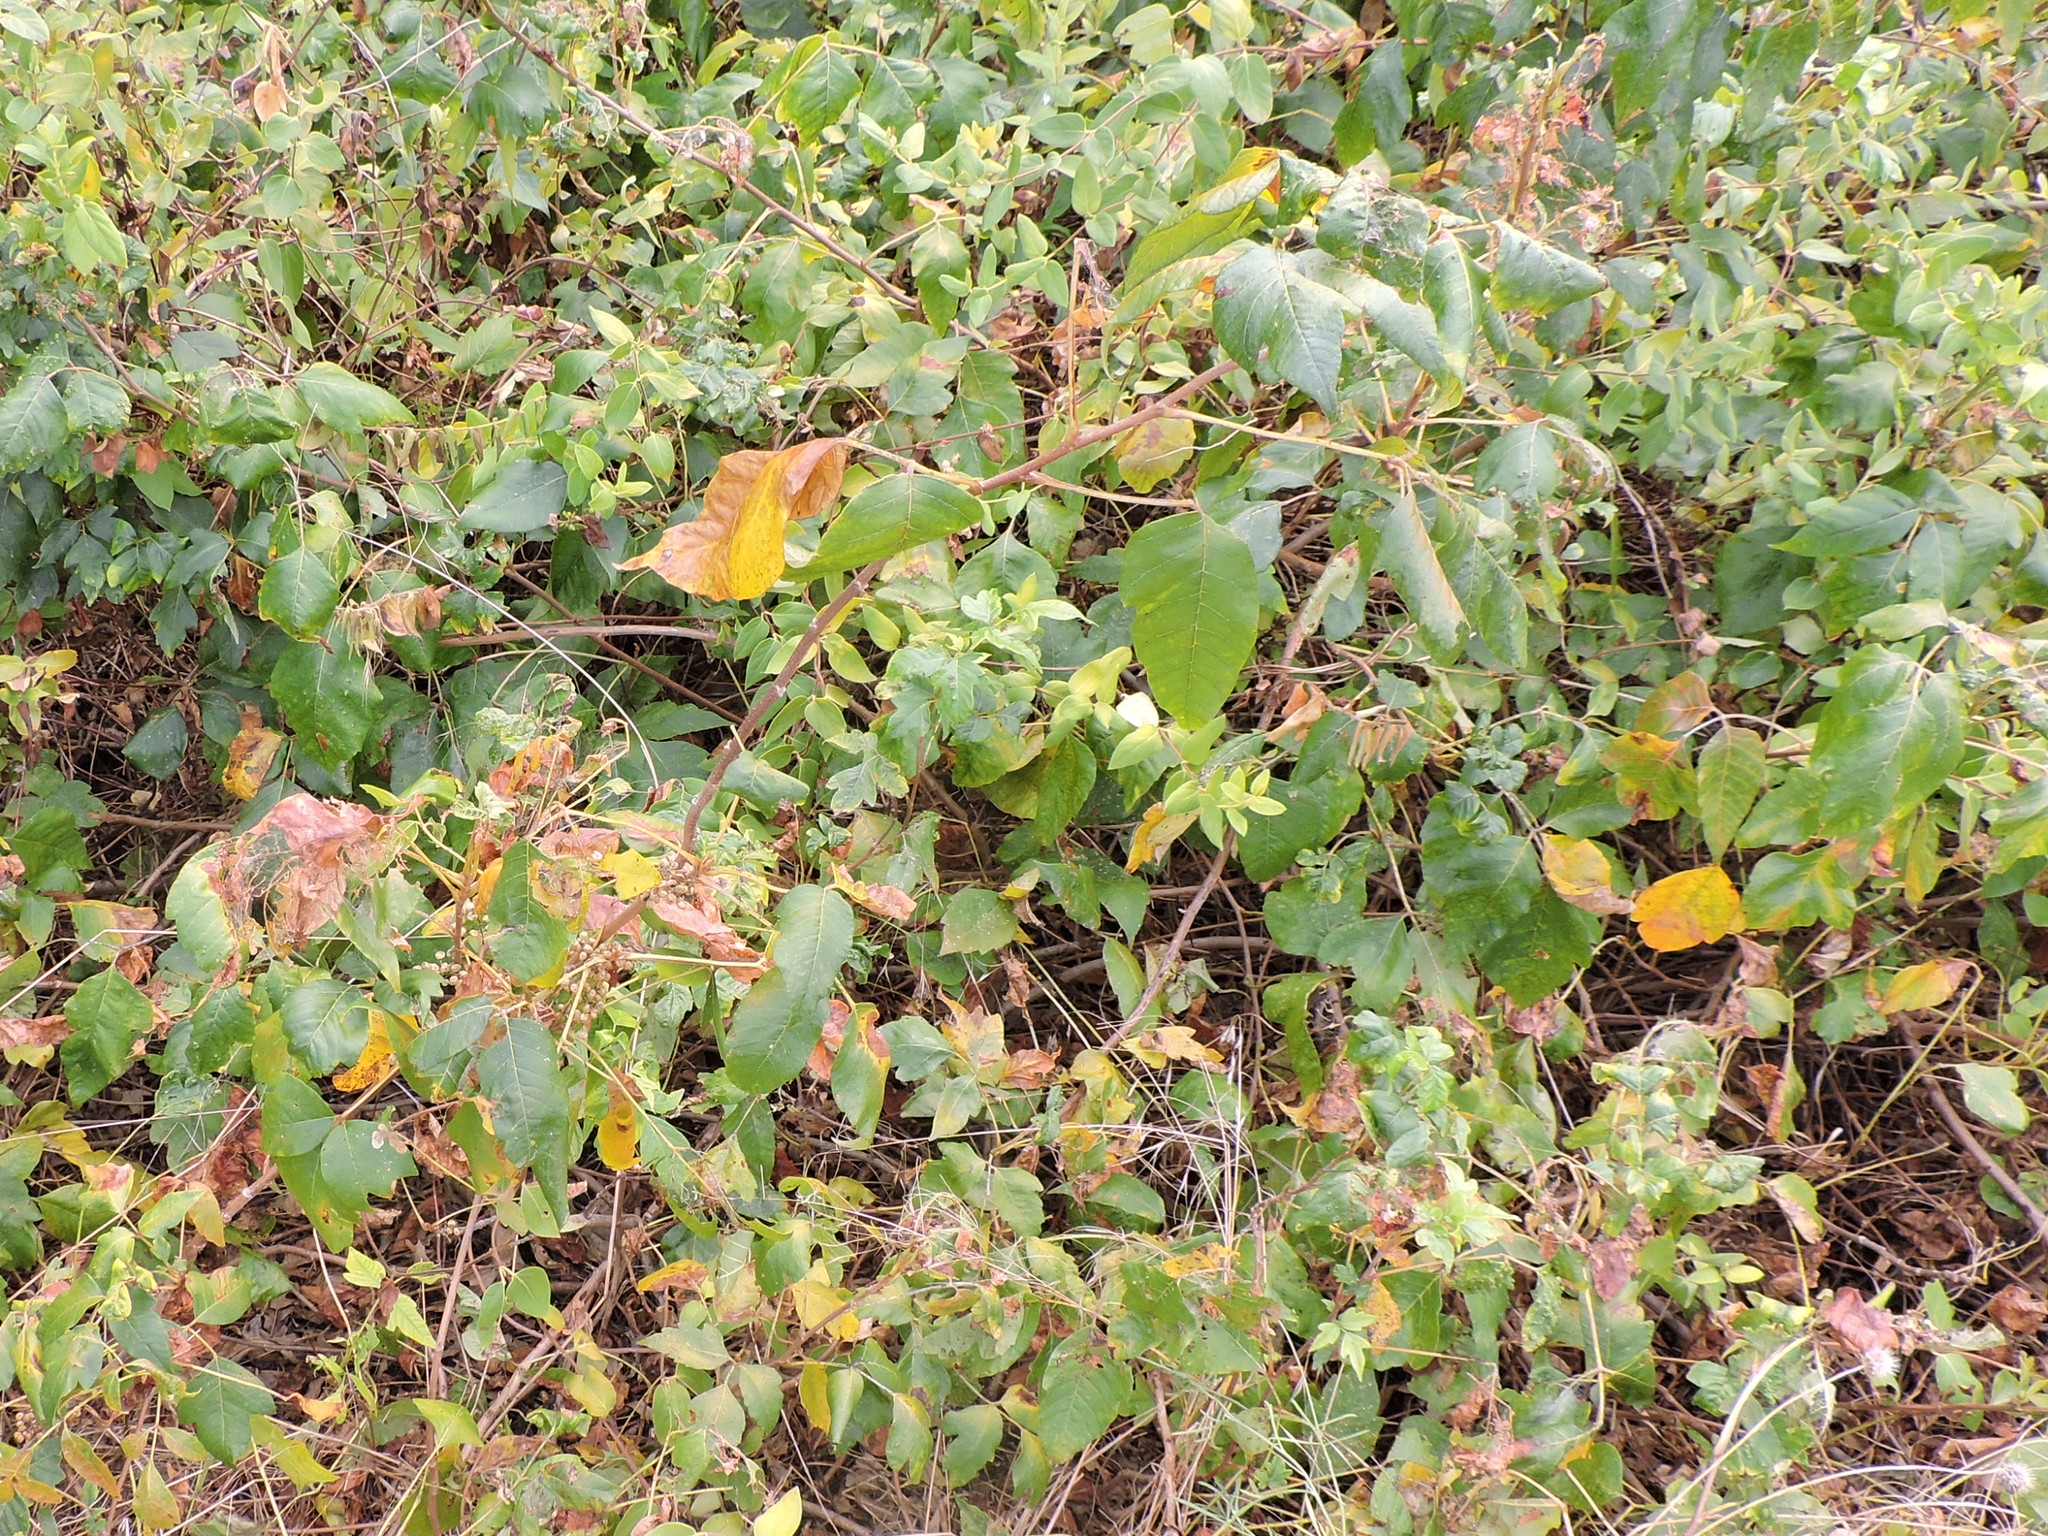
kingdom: Plantae
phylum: Tracheophyta
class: Magnoliopsida
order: Sapindales
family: Anacardiaceae
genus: Toxicodendron
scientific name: Toxicodendron radicans
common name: Poison ivy
